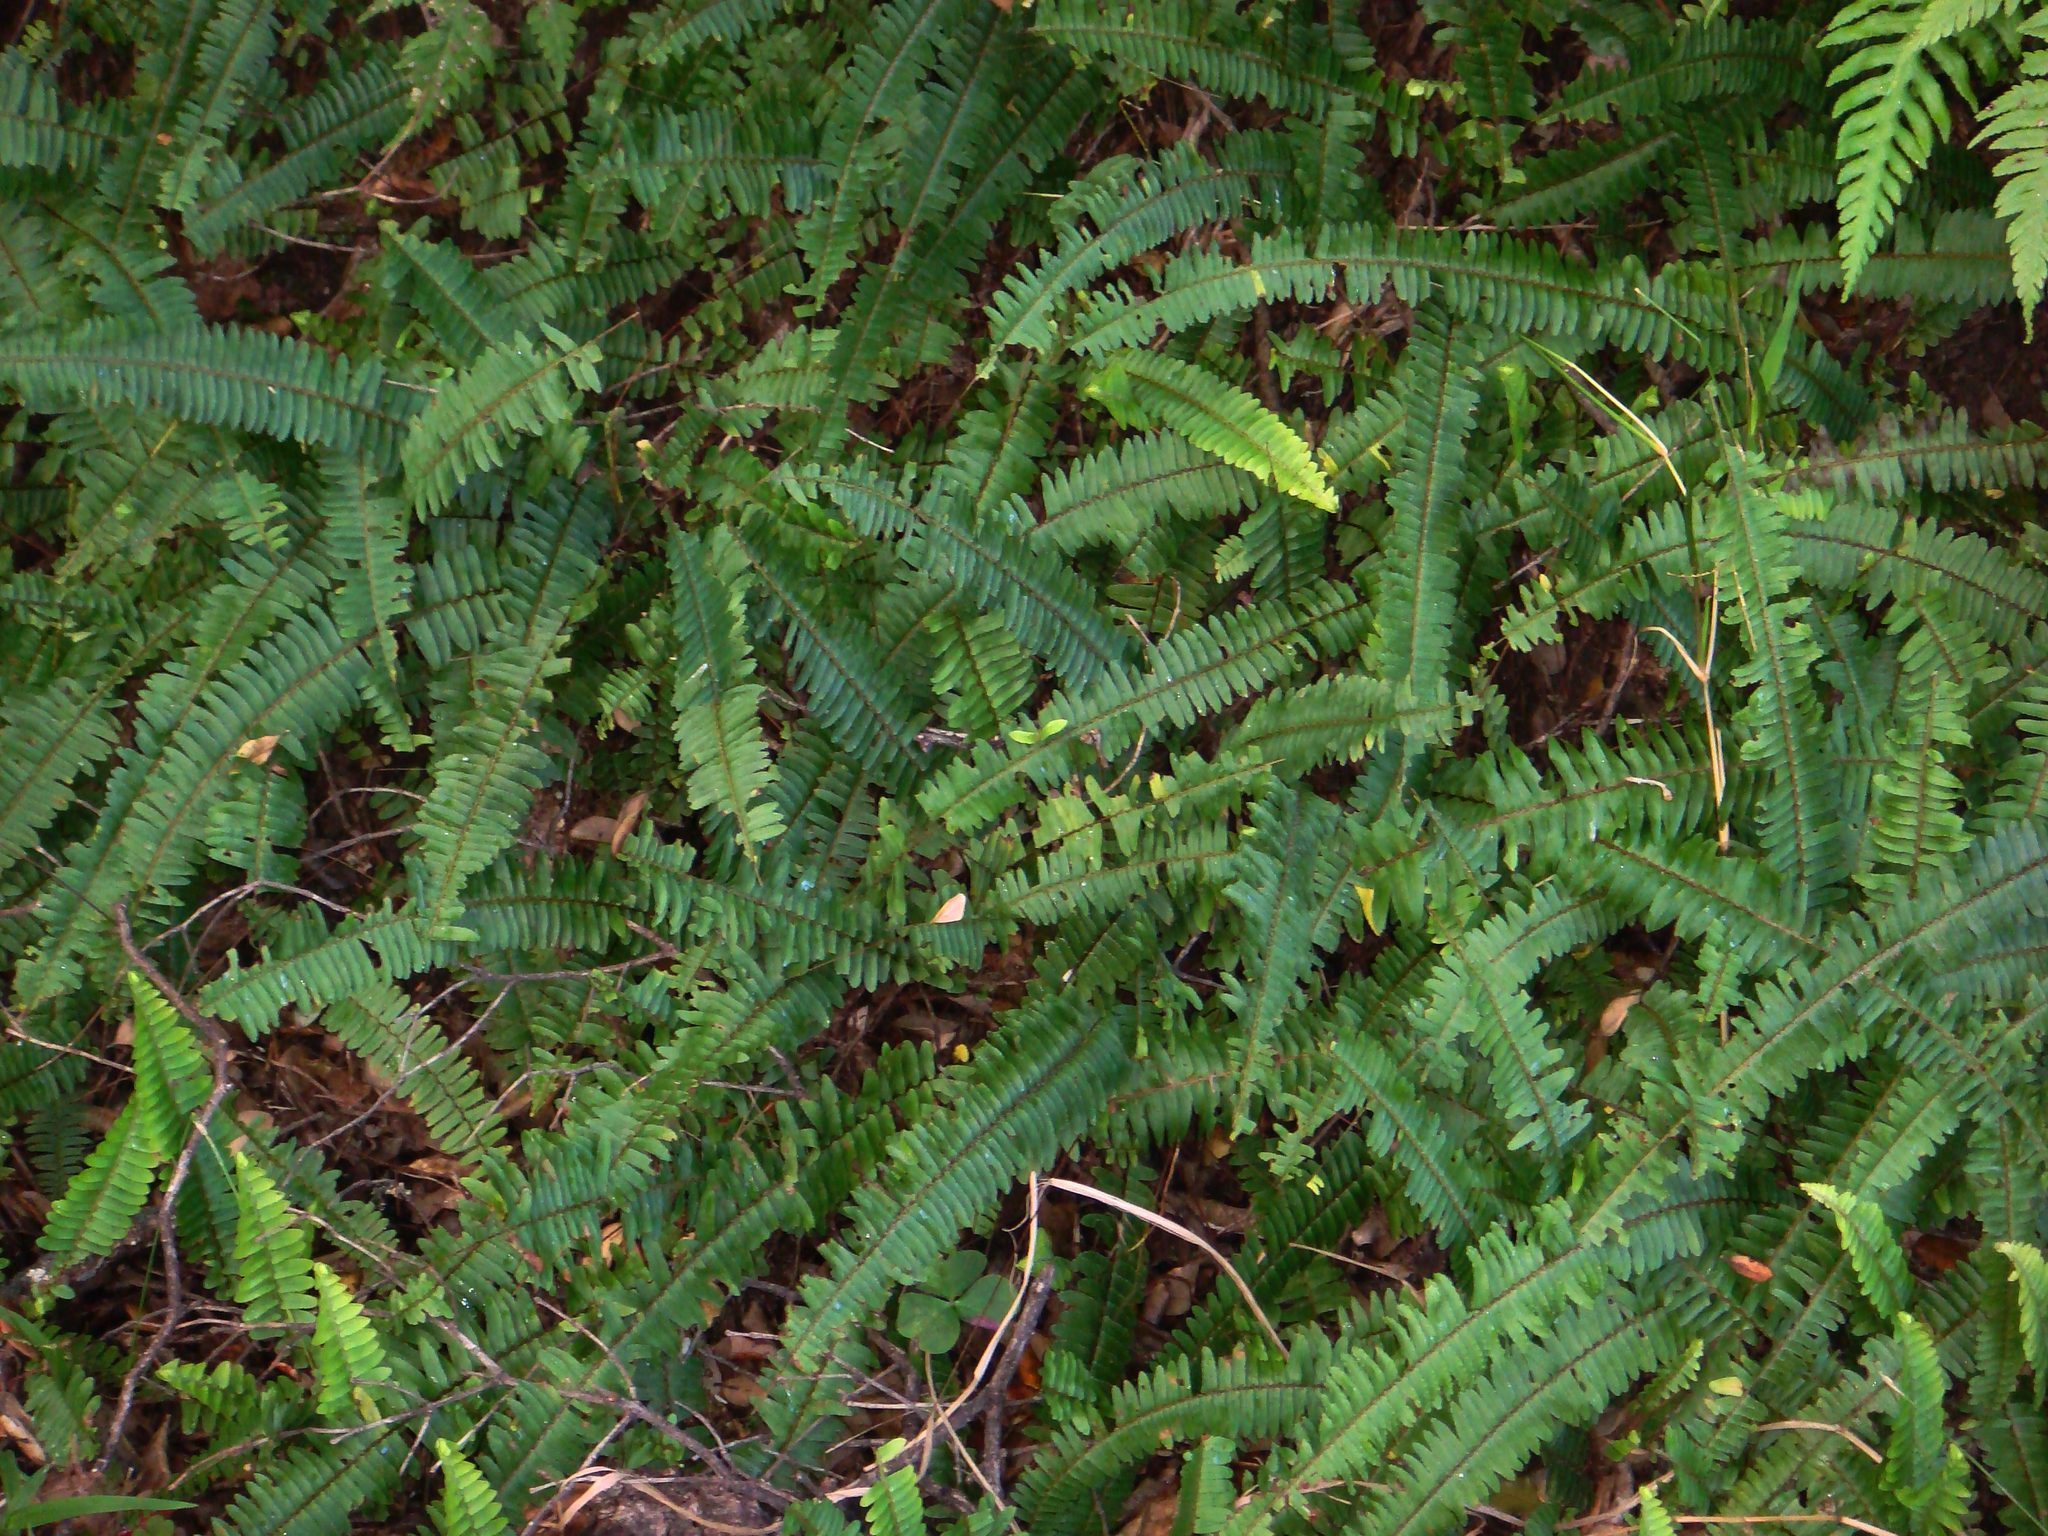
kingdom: Plantae
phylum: Tracheophyta
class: Polypodiopsida
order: Polypodiales
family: Nephrolepidaceae
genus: Nephrolepis
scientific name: Nephrolepis flexuosa
